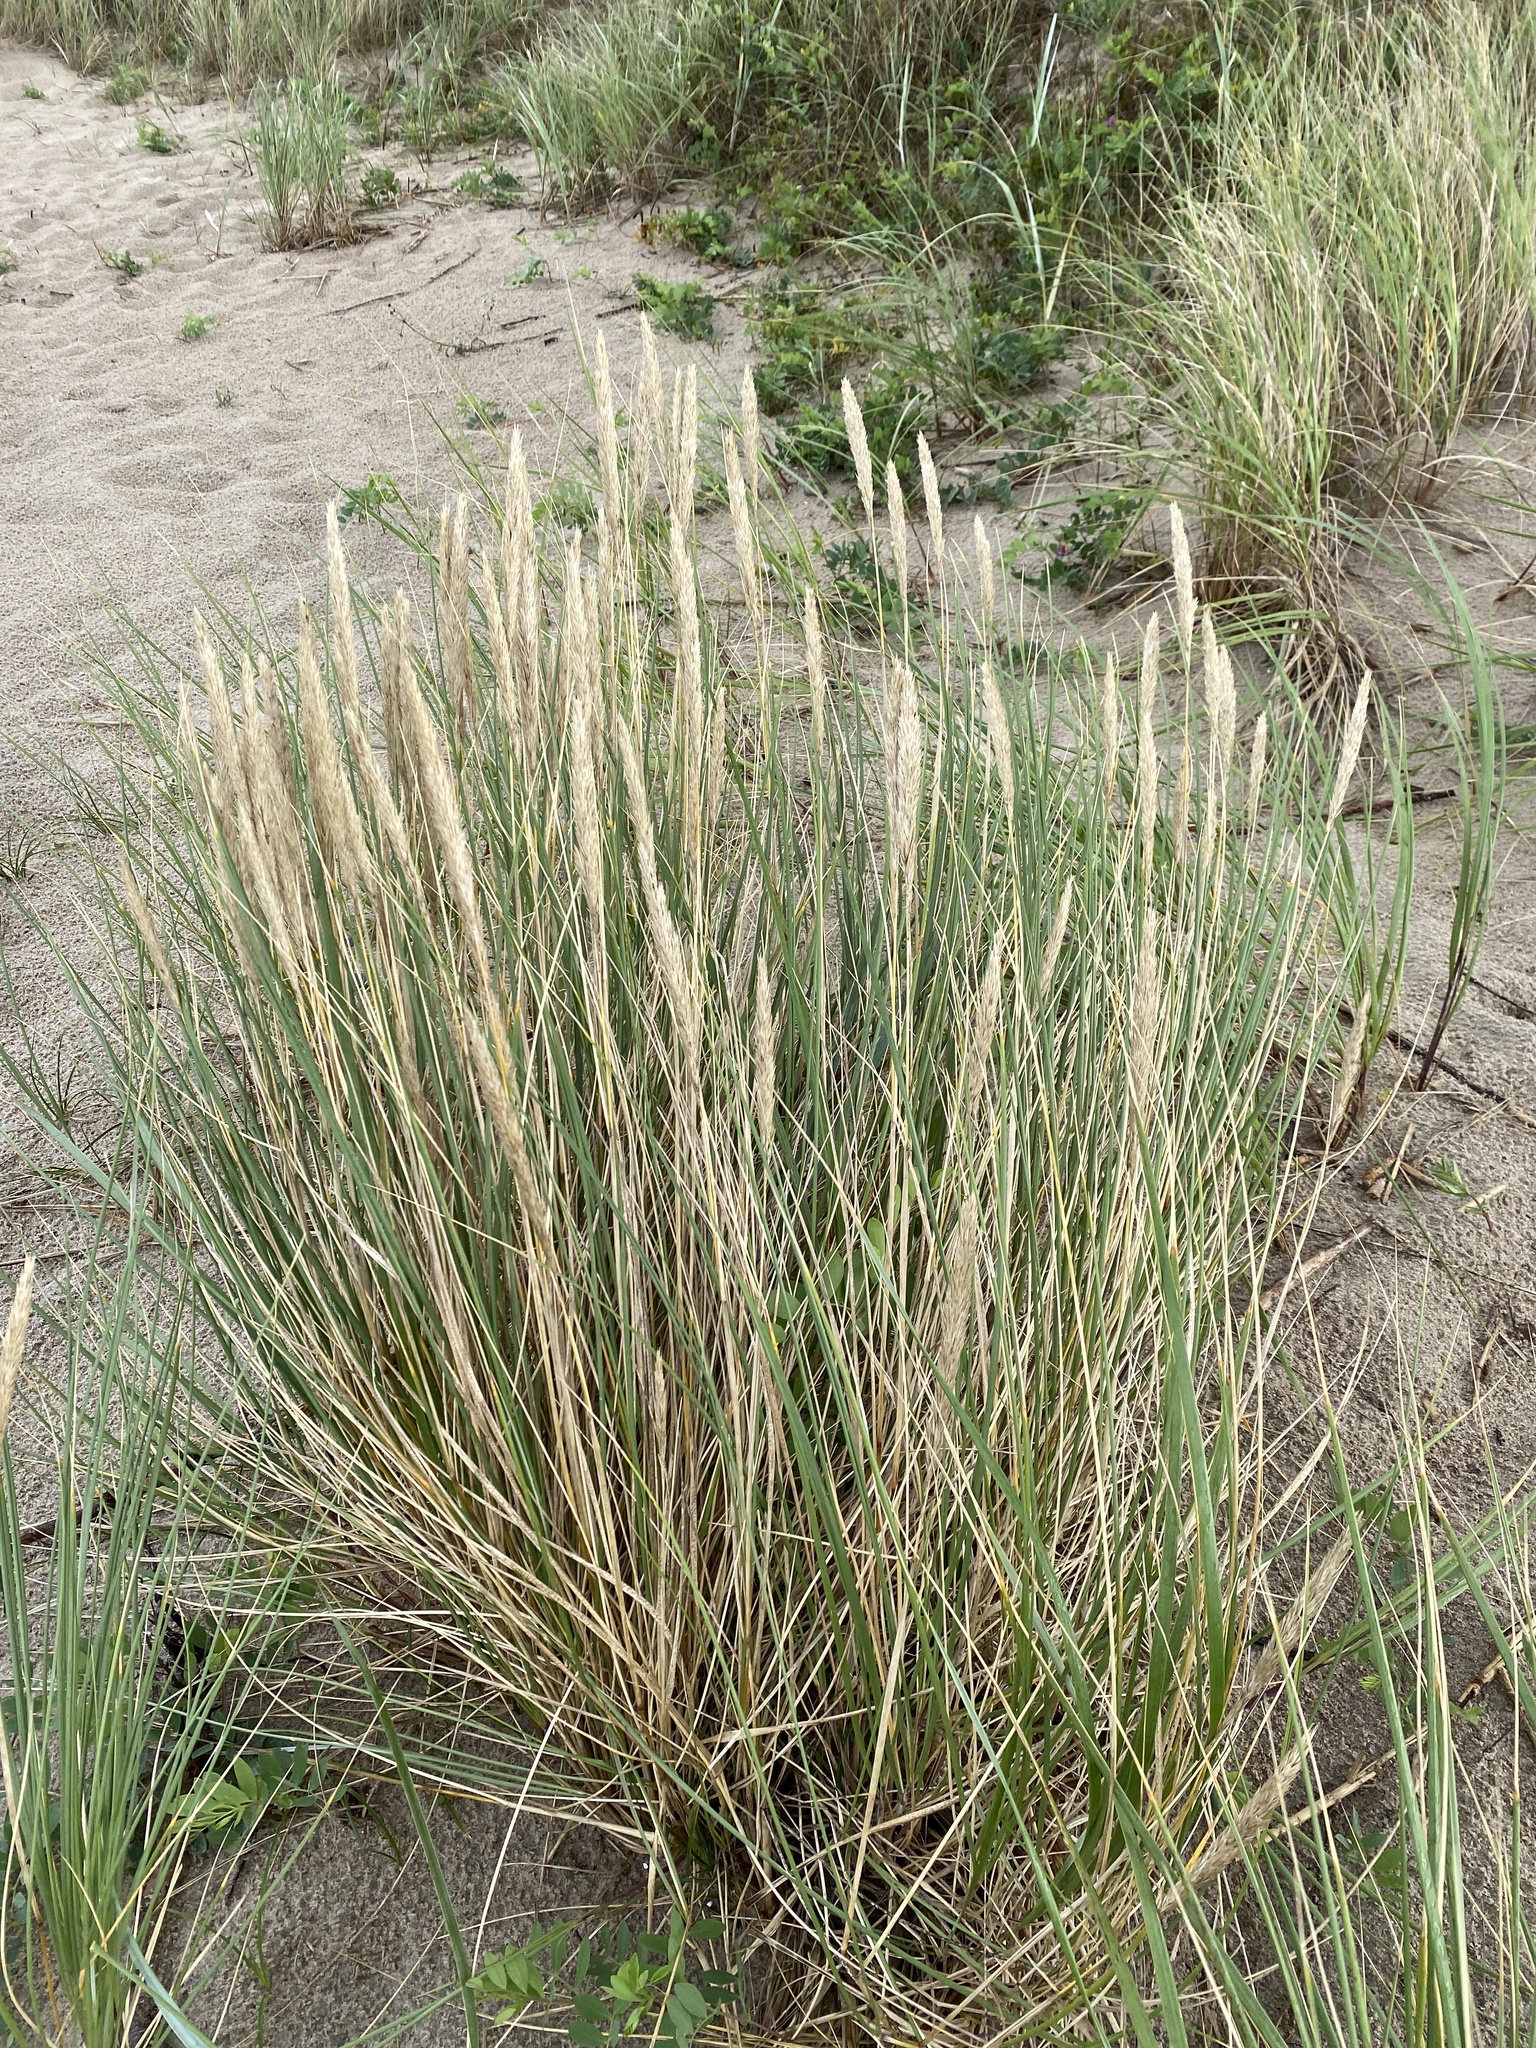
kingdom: Plantae
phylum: Tracheophyta
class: Liliopsida
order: Poales
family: Poaceae
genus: Calamagrostis
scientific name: Calamagrostis arenaria
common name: European beachgrass
